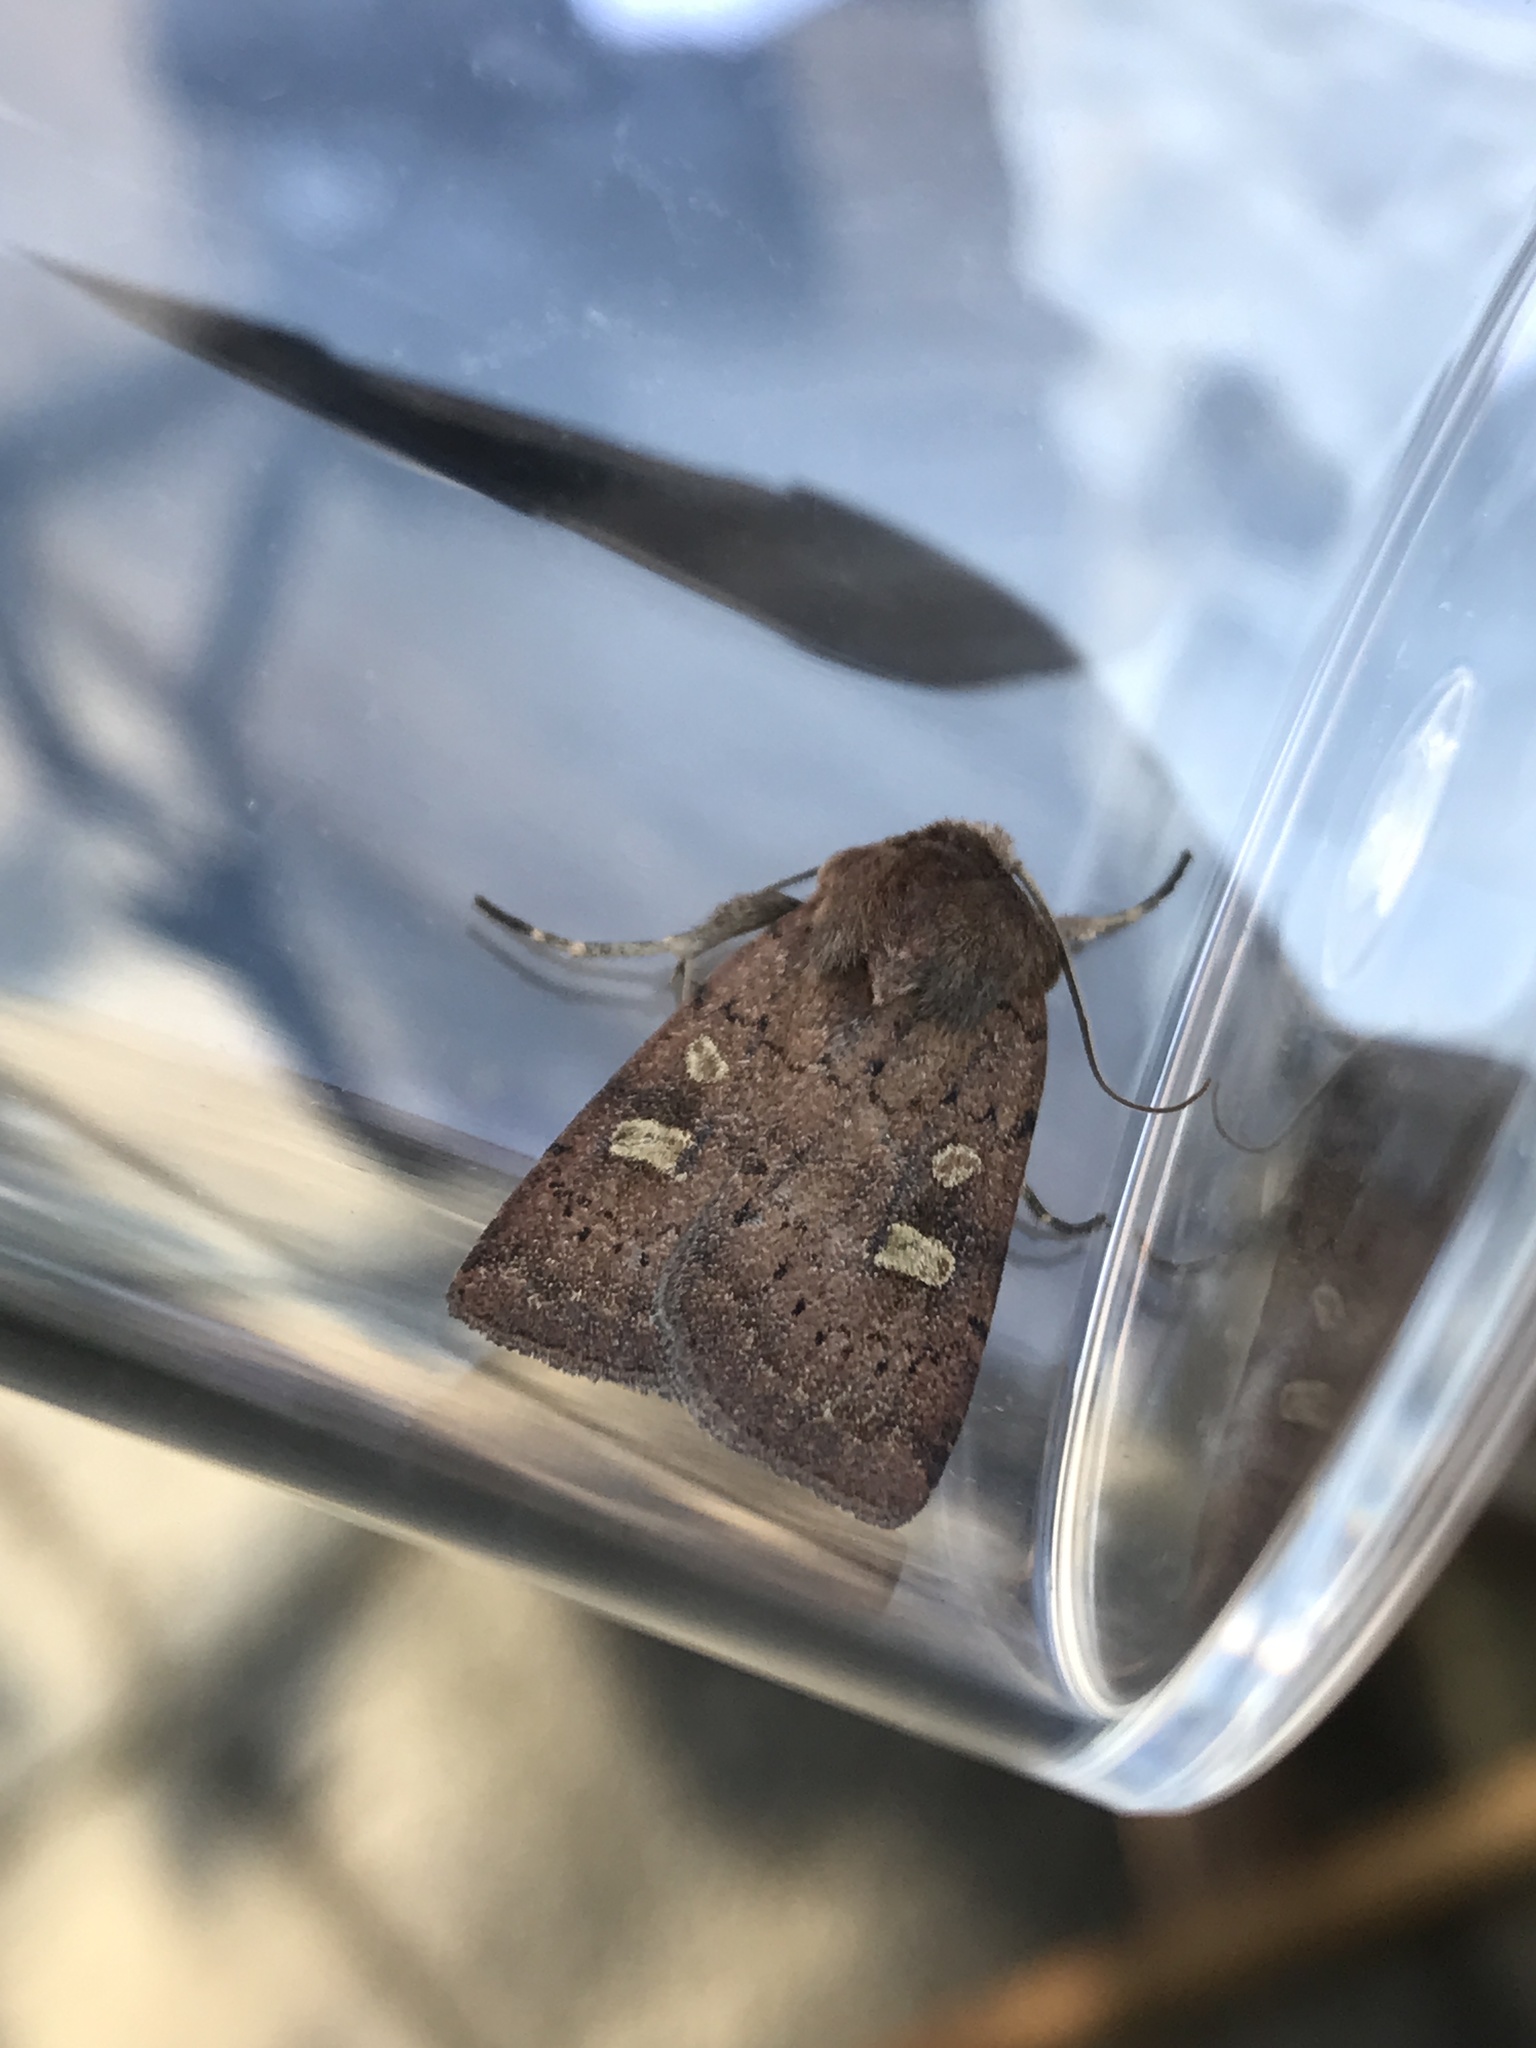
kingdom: Animalia
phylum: Arthropoda
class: Insecta
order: Lepidoptera
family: Noctuidae
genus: Xestia
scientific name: Xestia xanthographa
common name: Square-spot rustic
